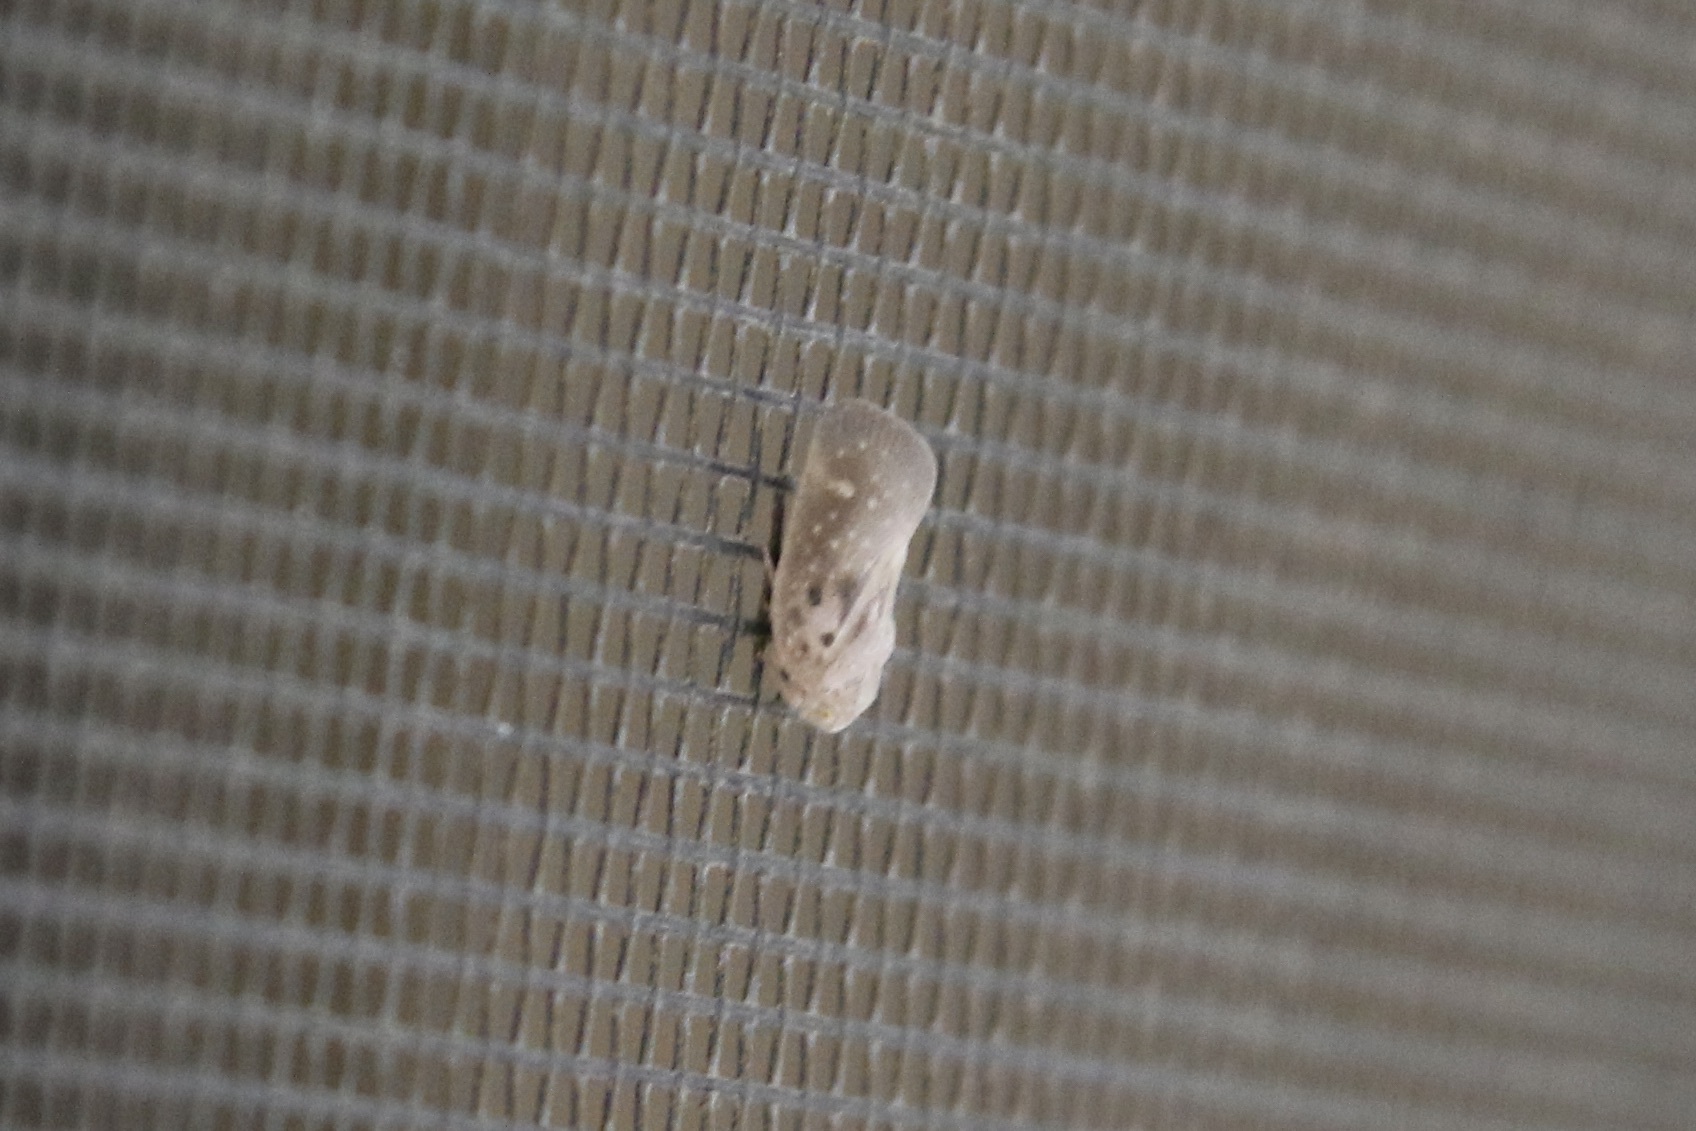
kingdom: Animalia
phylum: Arthropoda
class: Insecta
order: Hemiptera
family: Flatidae
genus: Metcalfa
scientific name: Metcalfa pruinosa
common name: Citrus flatid planthopper
